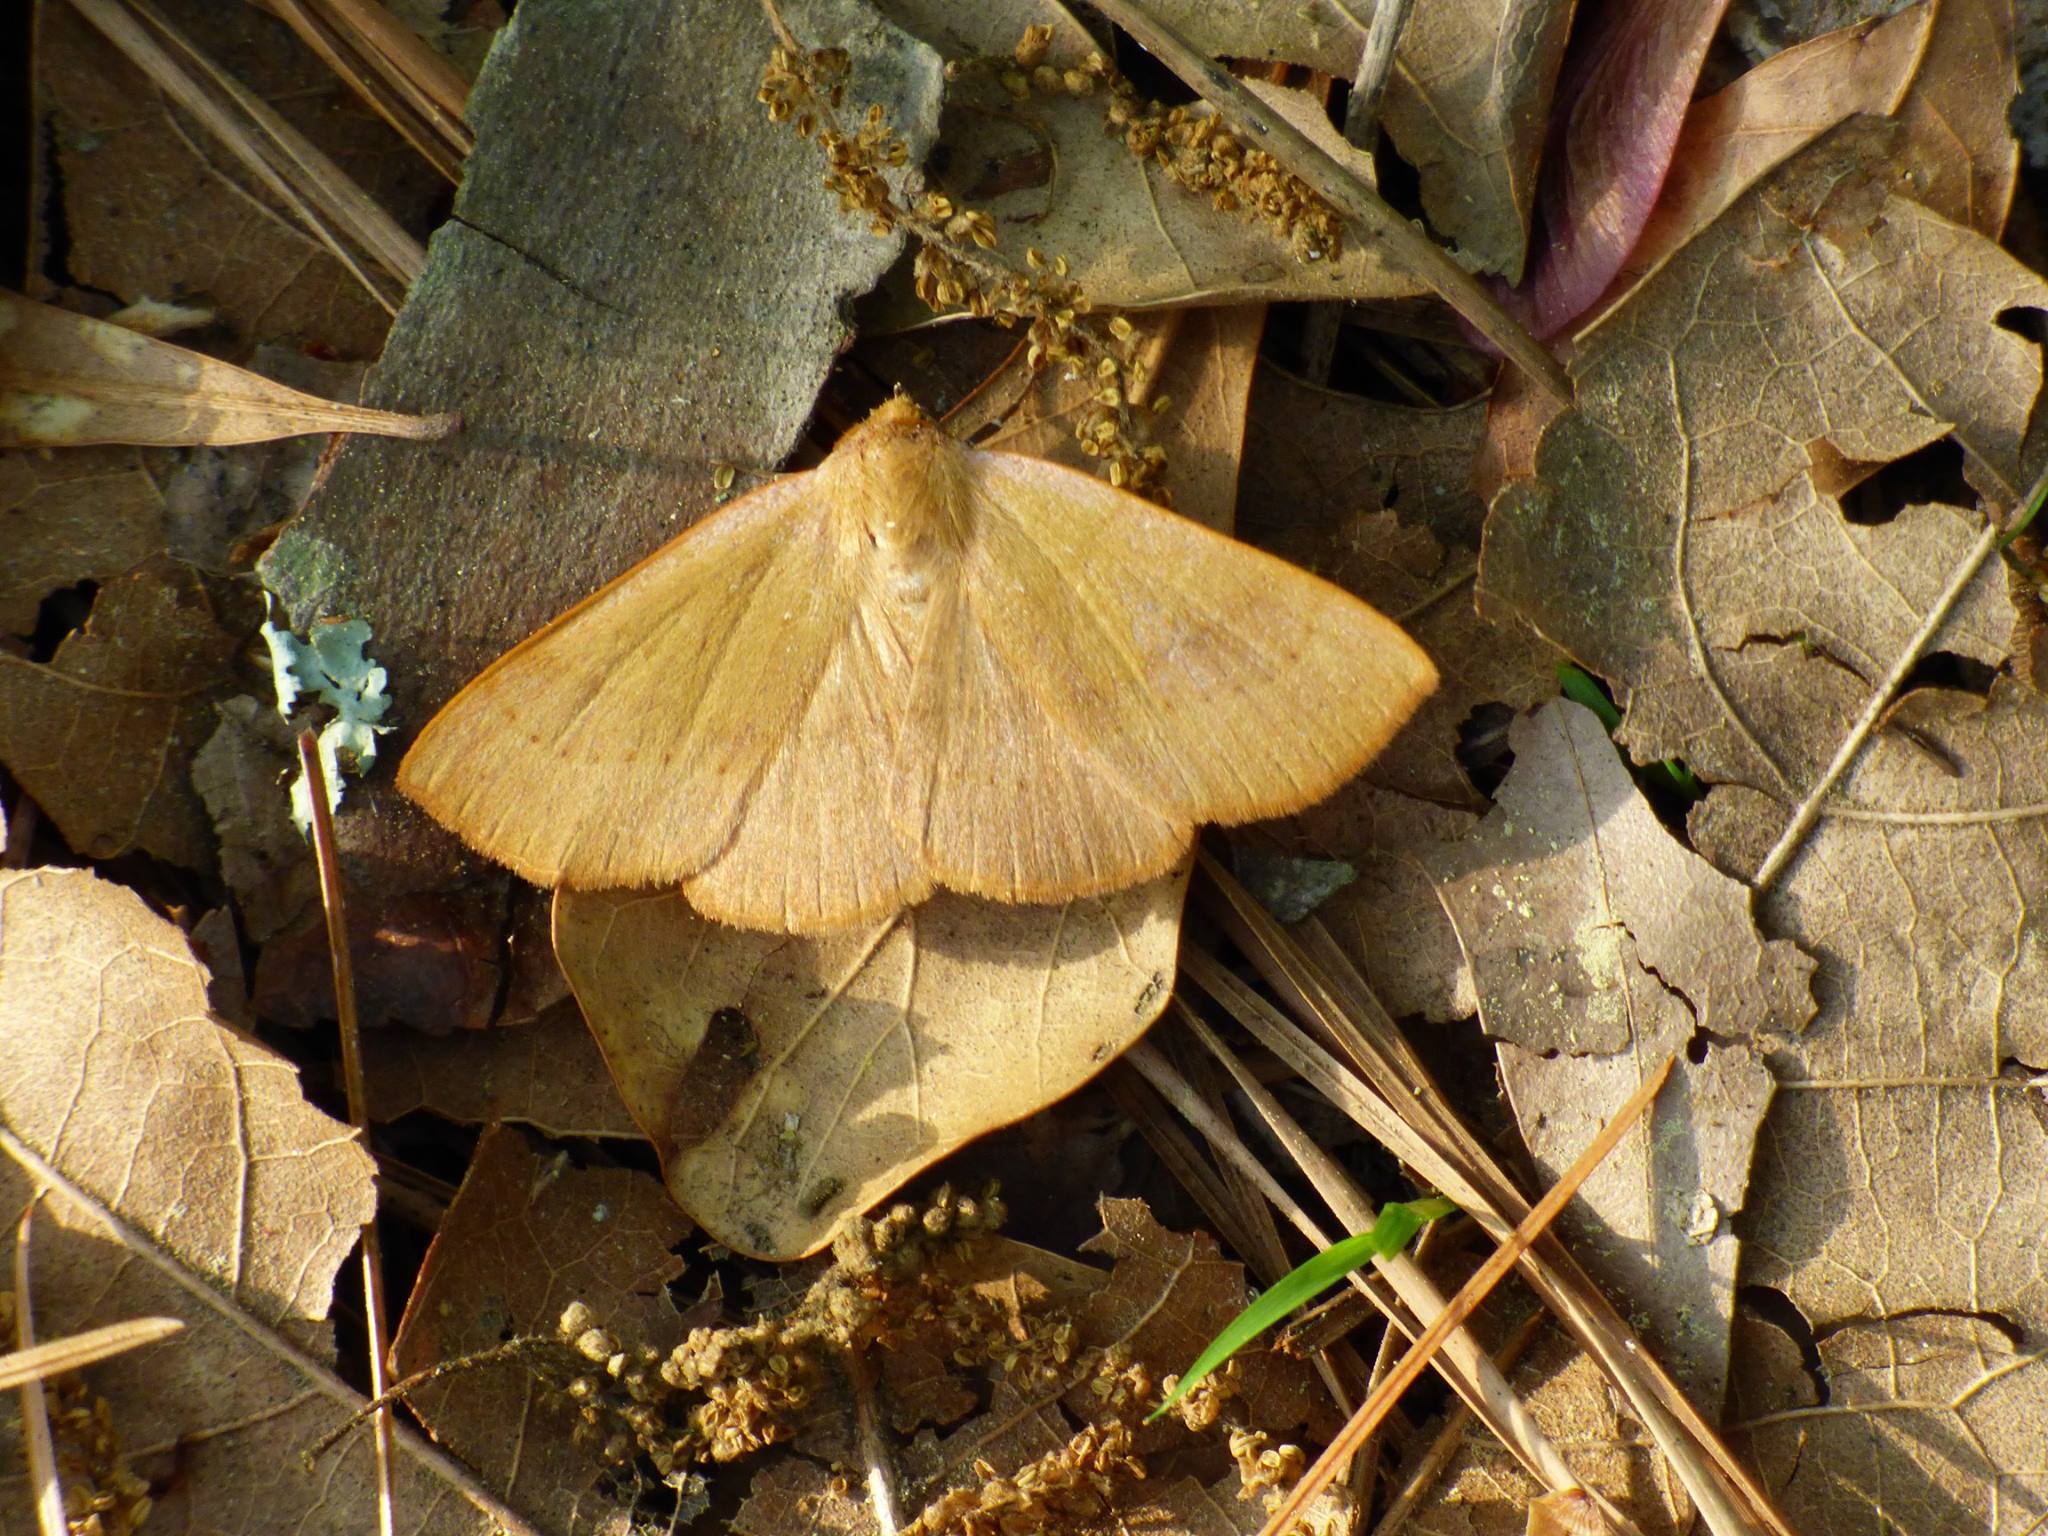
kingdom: Animalia
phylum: Arthropoda
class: Insecta
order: Lepidoptera
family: Erebidae
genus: Panopoda
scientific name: Panopoda repanda
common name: Orange panopoda
